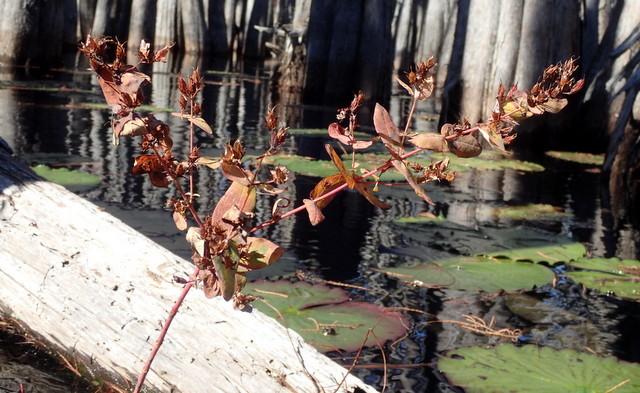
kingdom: Plantae
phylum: Tracheophyta
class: Magnoliopsida
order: Malpighiales
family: Hypericaceae
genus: Triadenum
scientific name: Triadenum virginicum
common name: Marsh st. john's-wort
